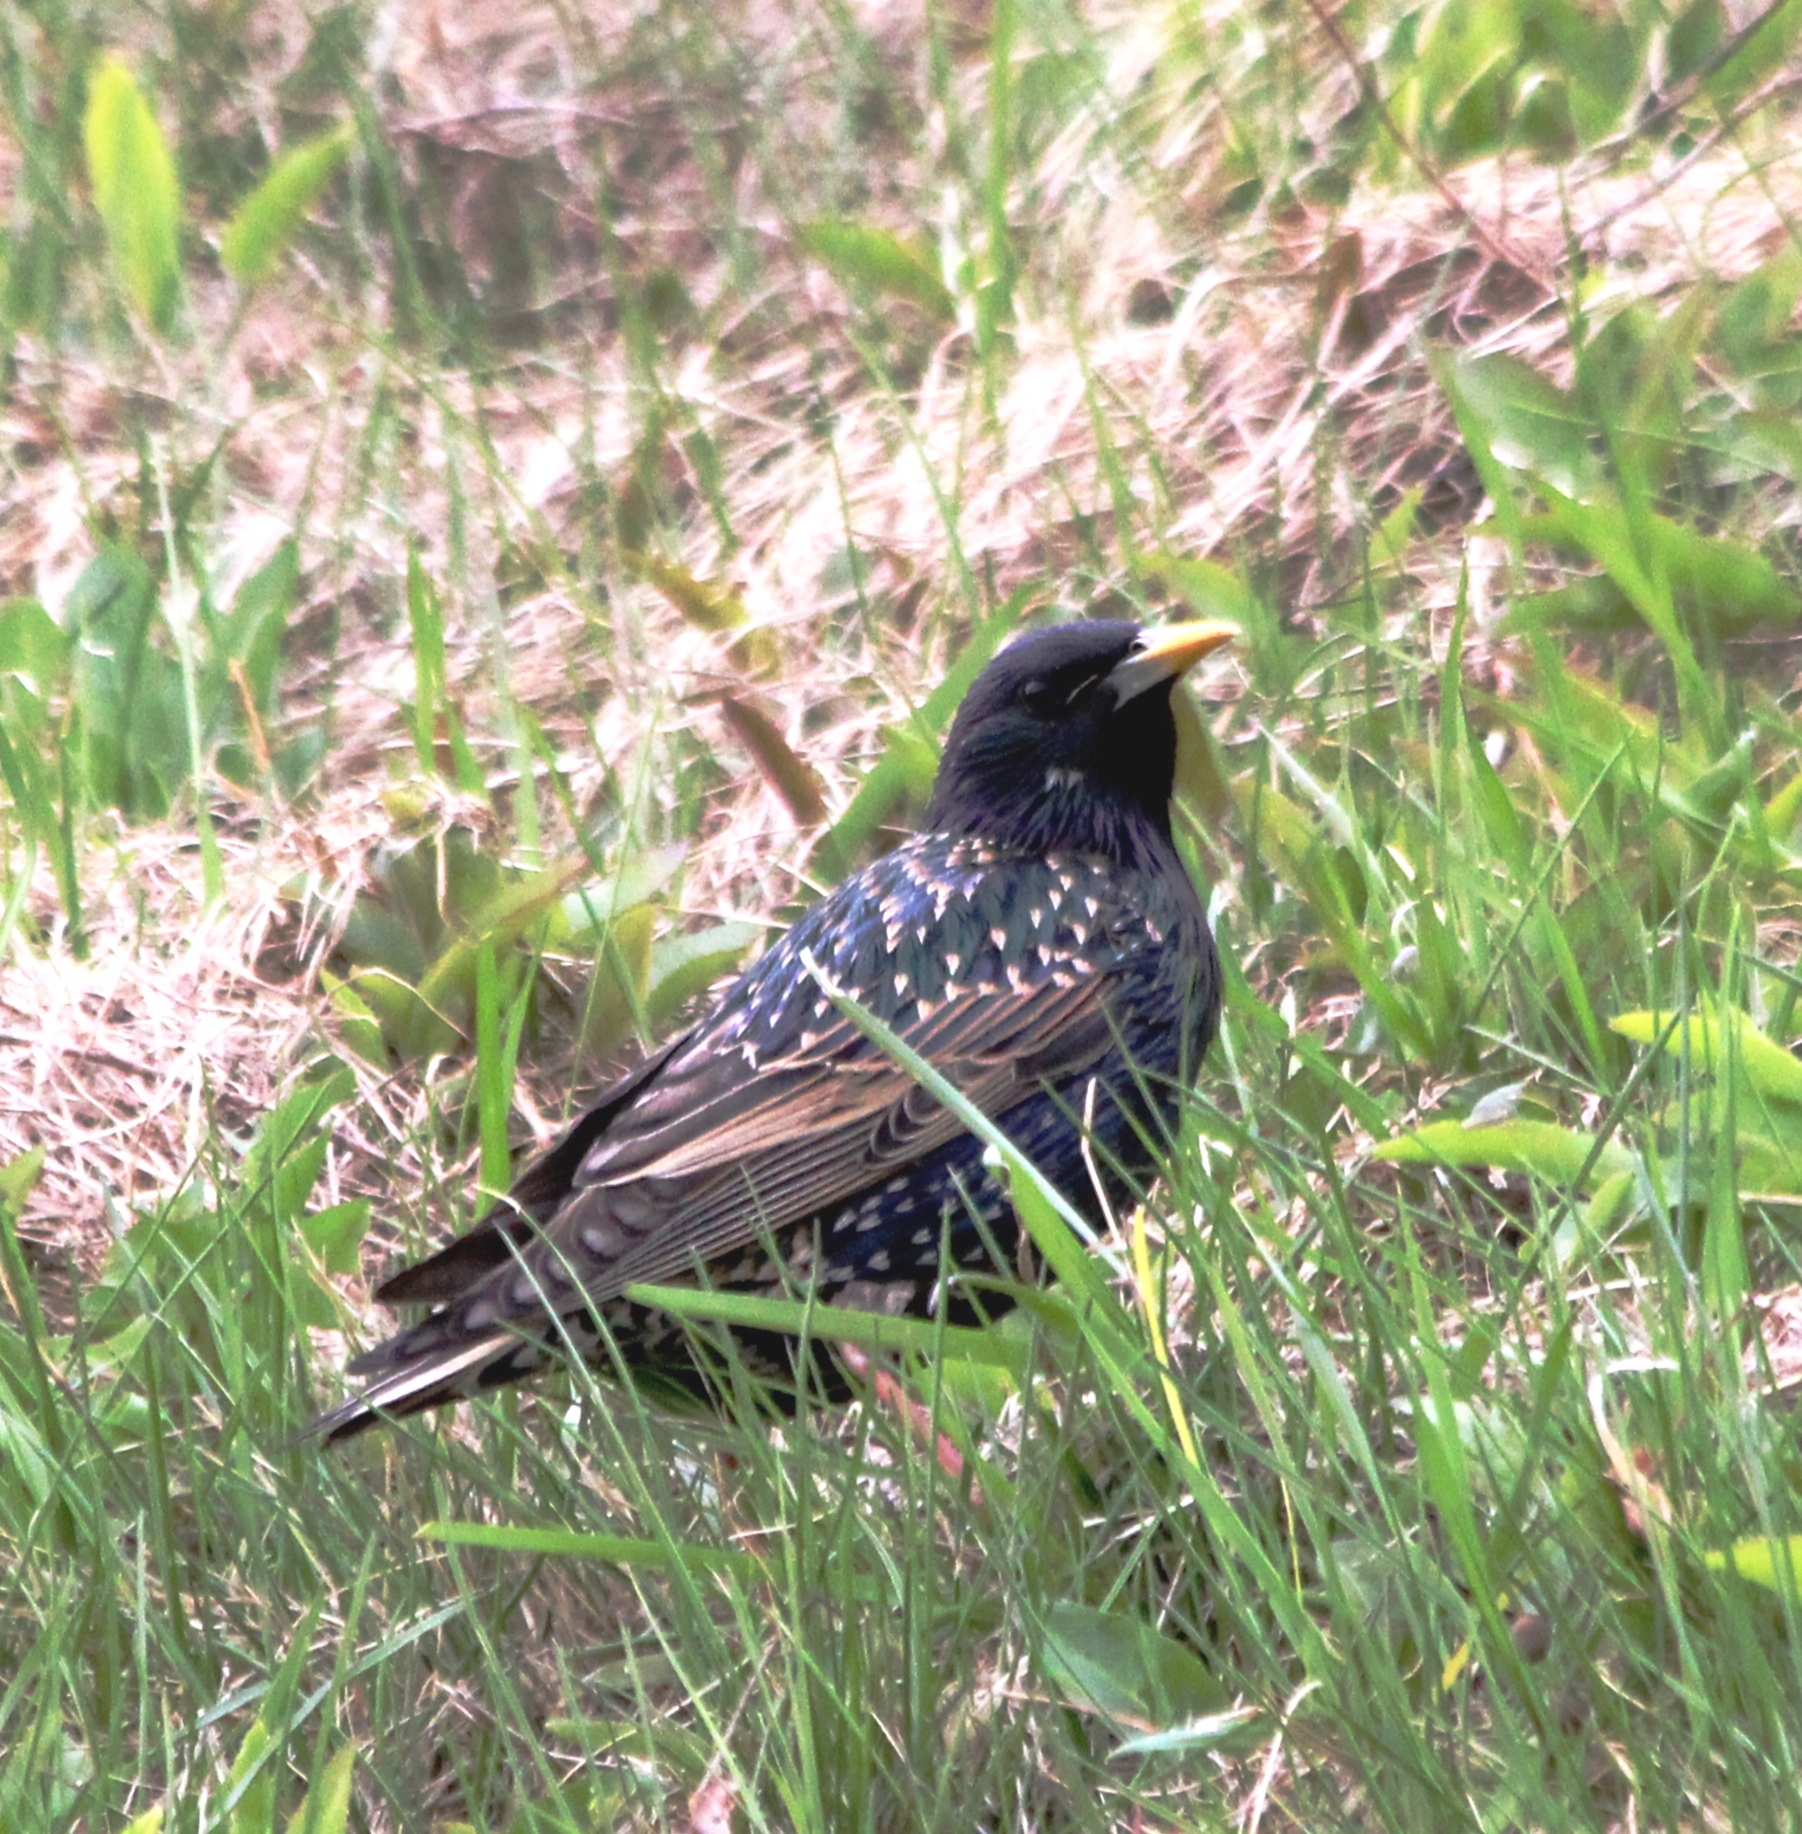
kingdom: Animalia
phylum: Chordata
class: Aves
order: Passeriformes
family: Sturnidae
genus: Sturnus
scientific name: Sturnus vulgaris
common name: Common starling
